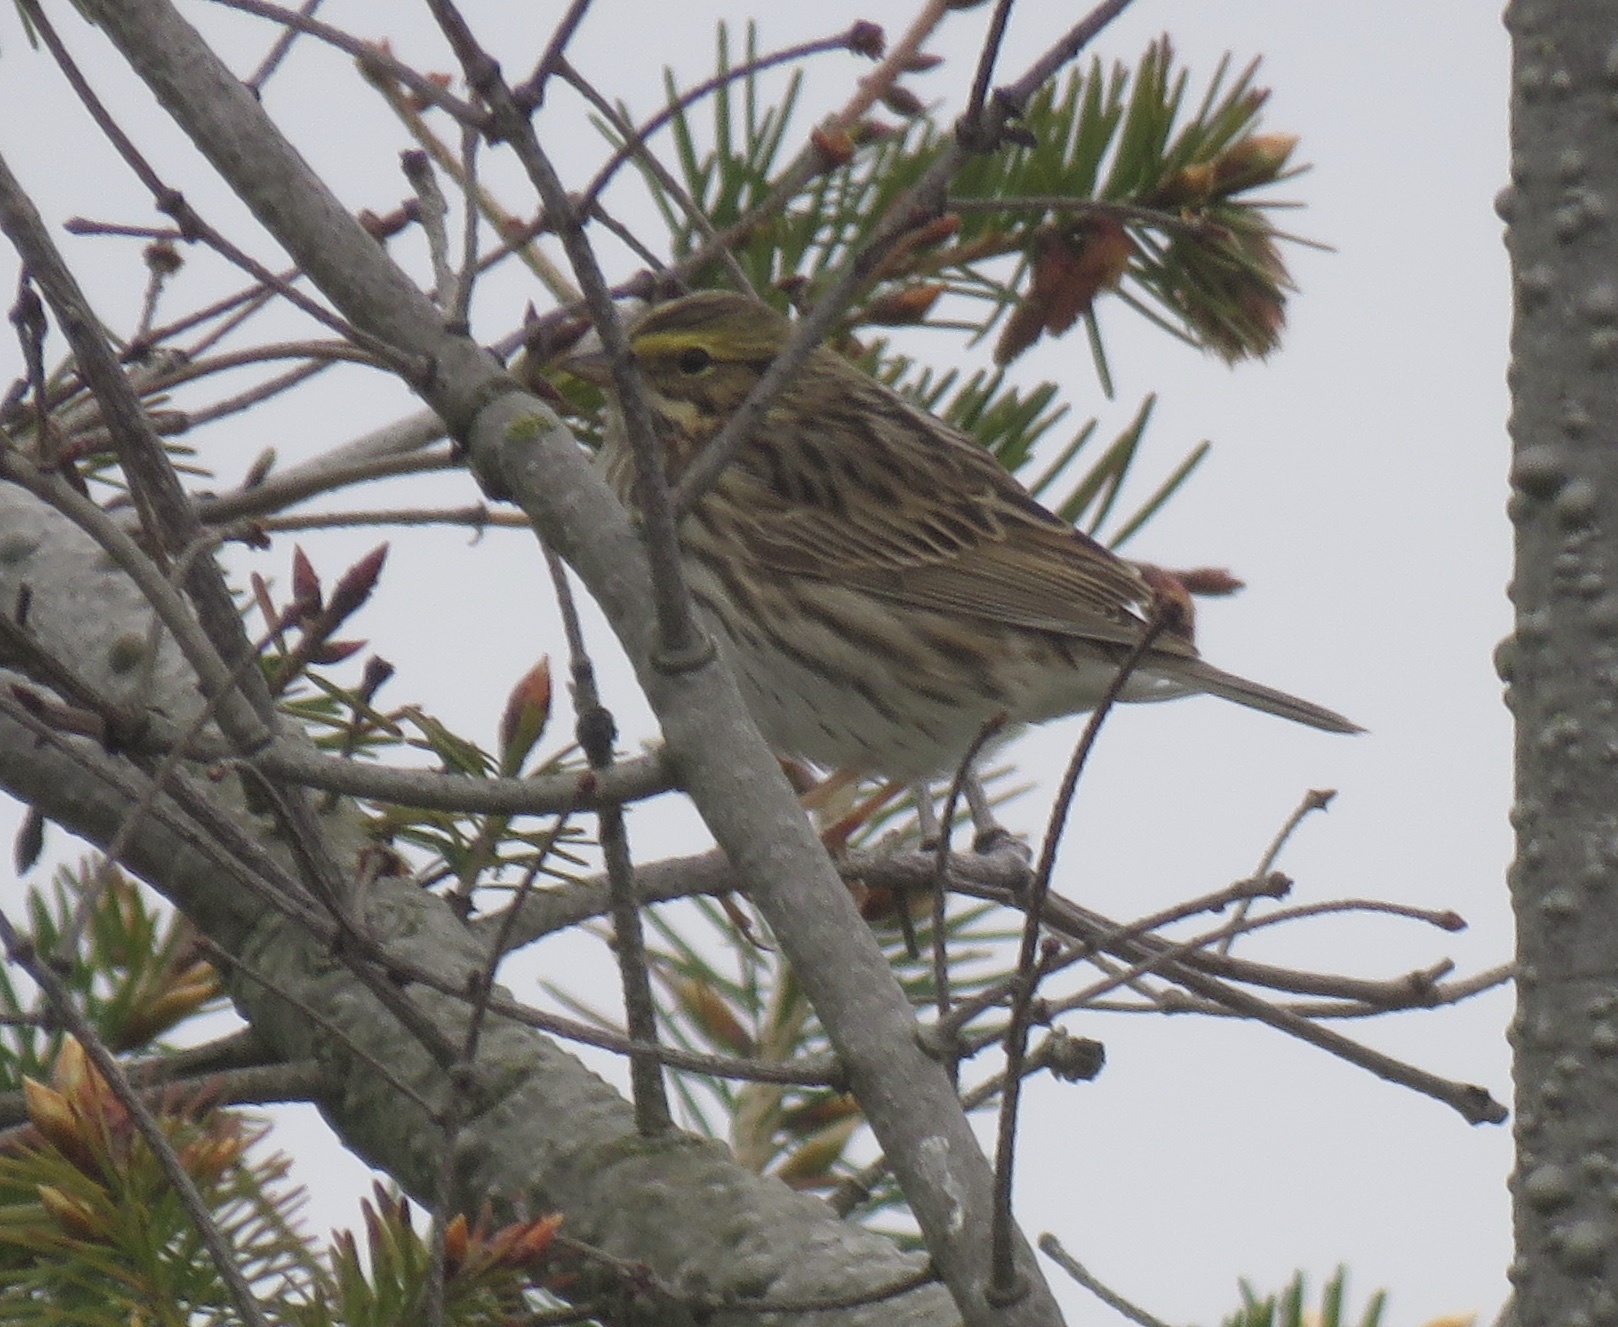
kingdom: Animalia
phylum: Chordata
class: Aves
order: Passeriformes
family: Passerellidae
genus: Passerculus
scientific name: Passerculus sandwichensis
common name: Savannah sparrow
